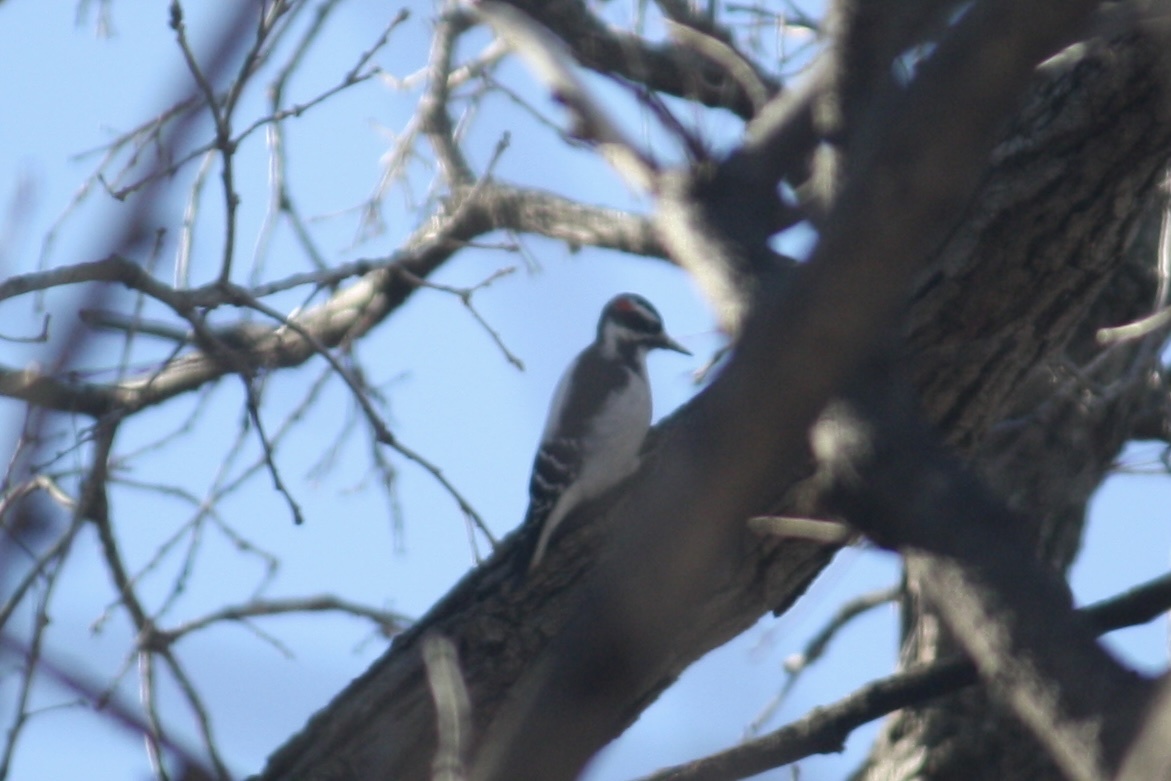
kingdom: Animalia
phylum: Chordata
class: Aves
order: Piciformes
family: Picidae
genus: Leuconotopicus
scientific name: Leuconotopicus villosus
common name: Hairy woodpecker
